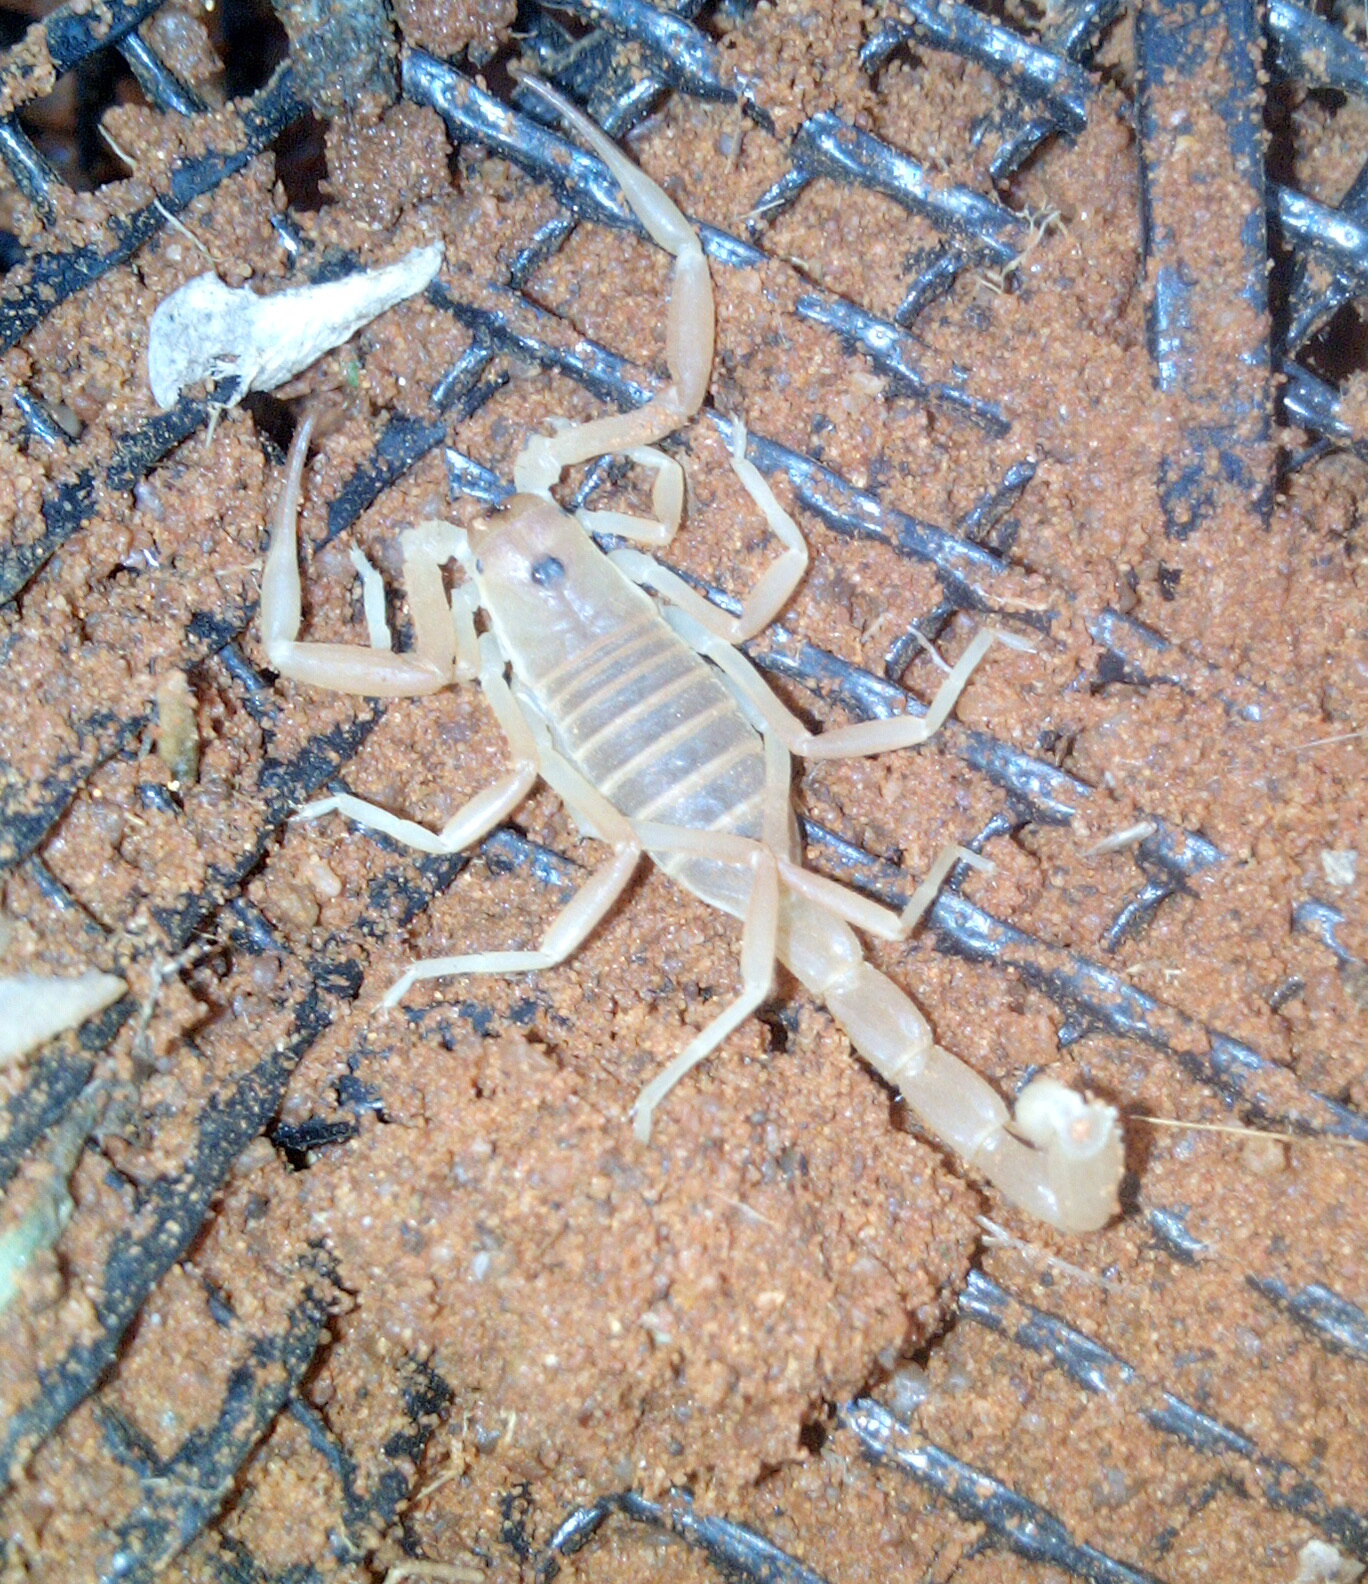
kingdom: Animalia
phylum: Arthropoda
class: Arachnida
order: Scorpiones
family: Buthidae
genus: Parabuthus
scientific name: Parabuthus granulatus
